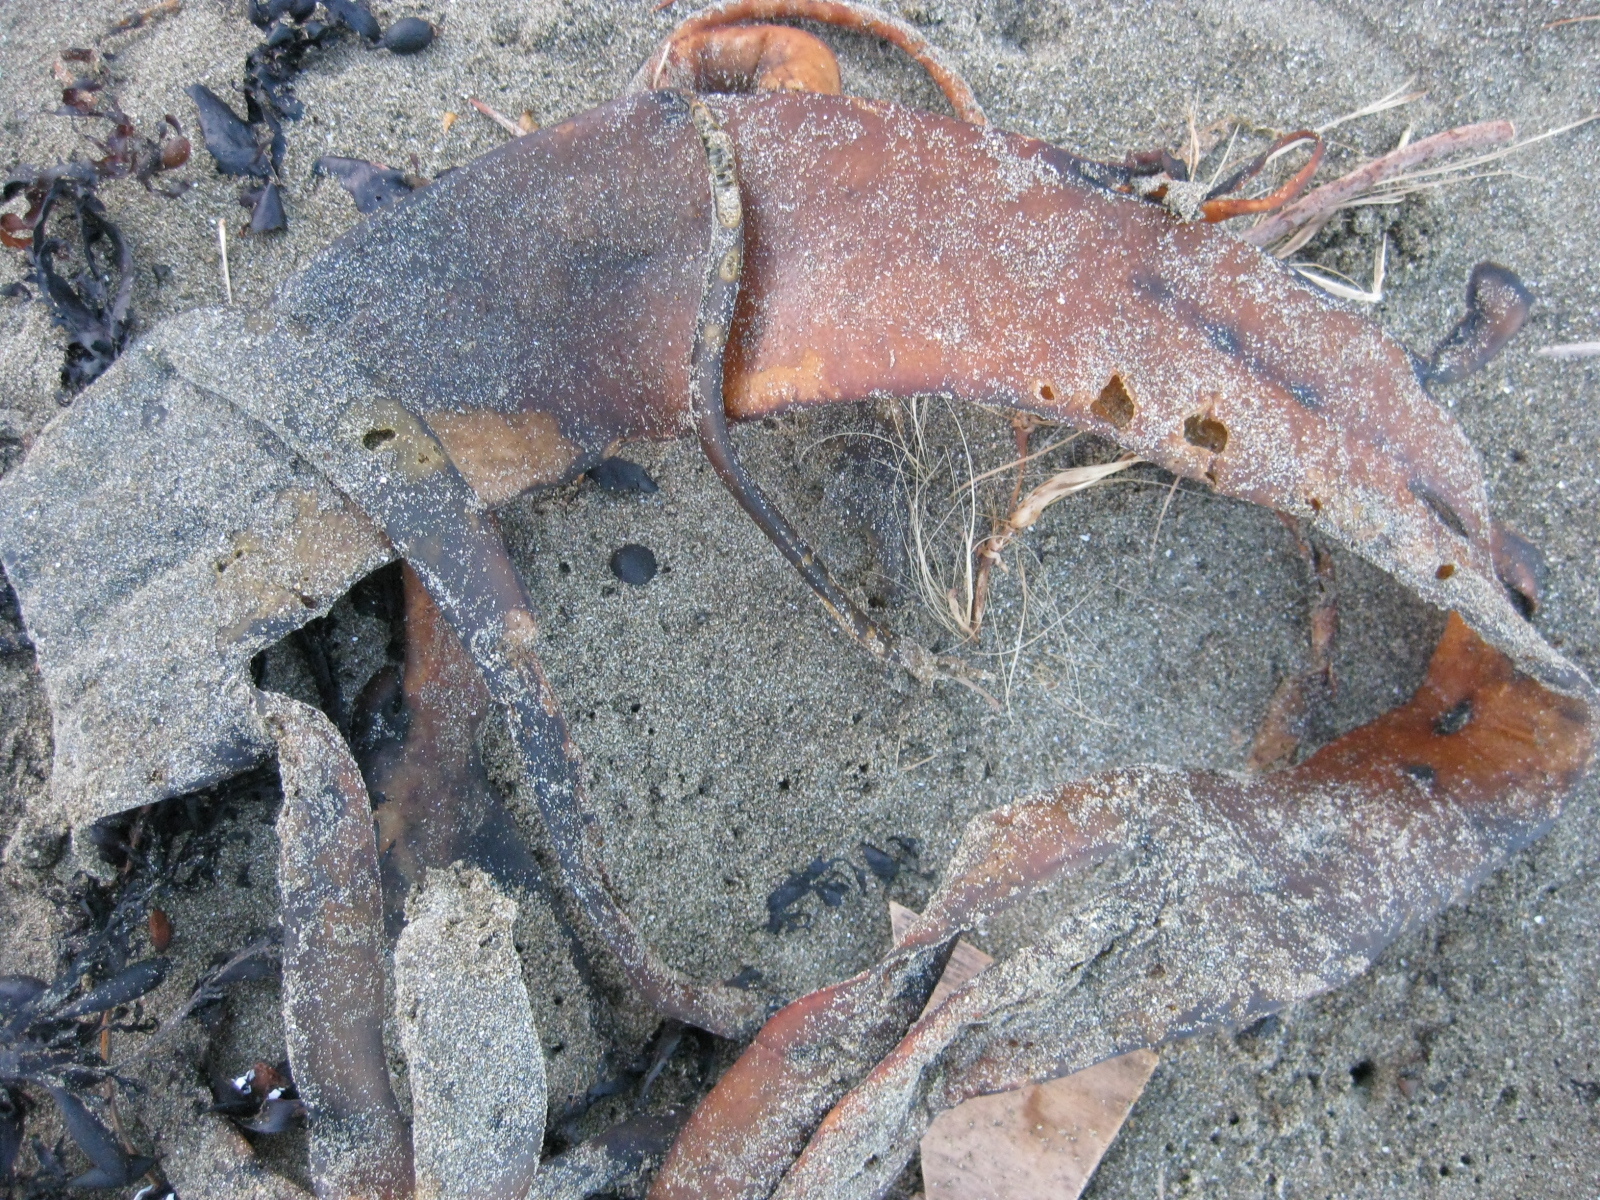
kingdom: Chromista
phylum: Ochrophyta
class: Phaeophyceae
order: Fucales
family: Durvillaeaceae
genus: Durvillaea
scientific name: Durvillaea antarctica
